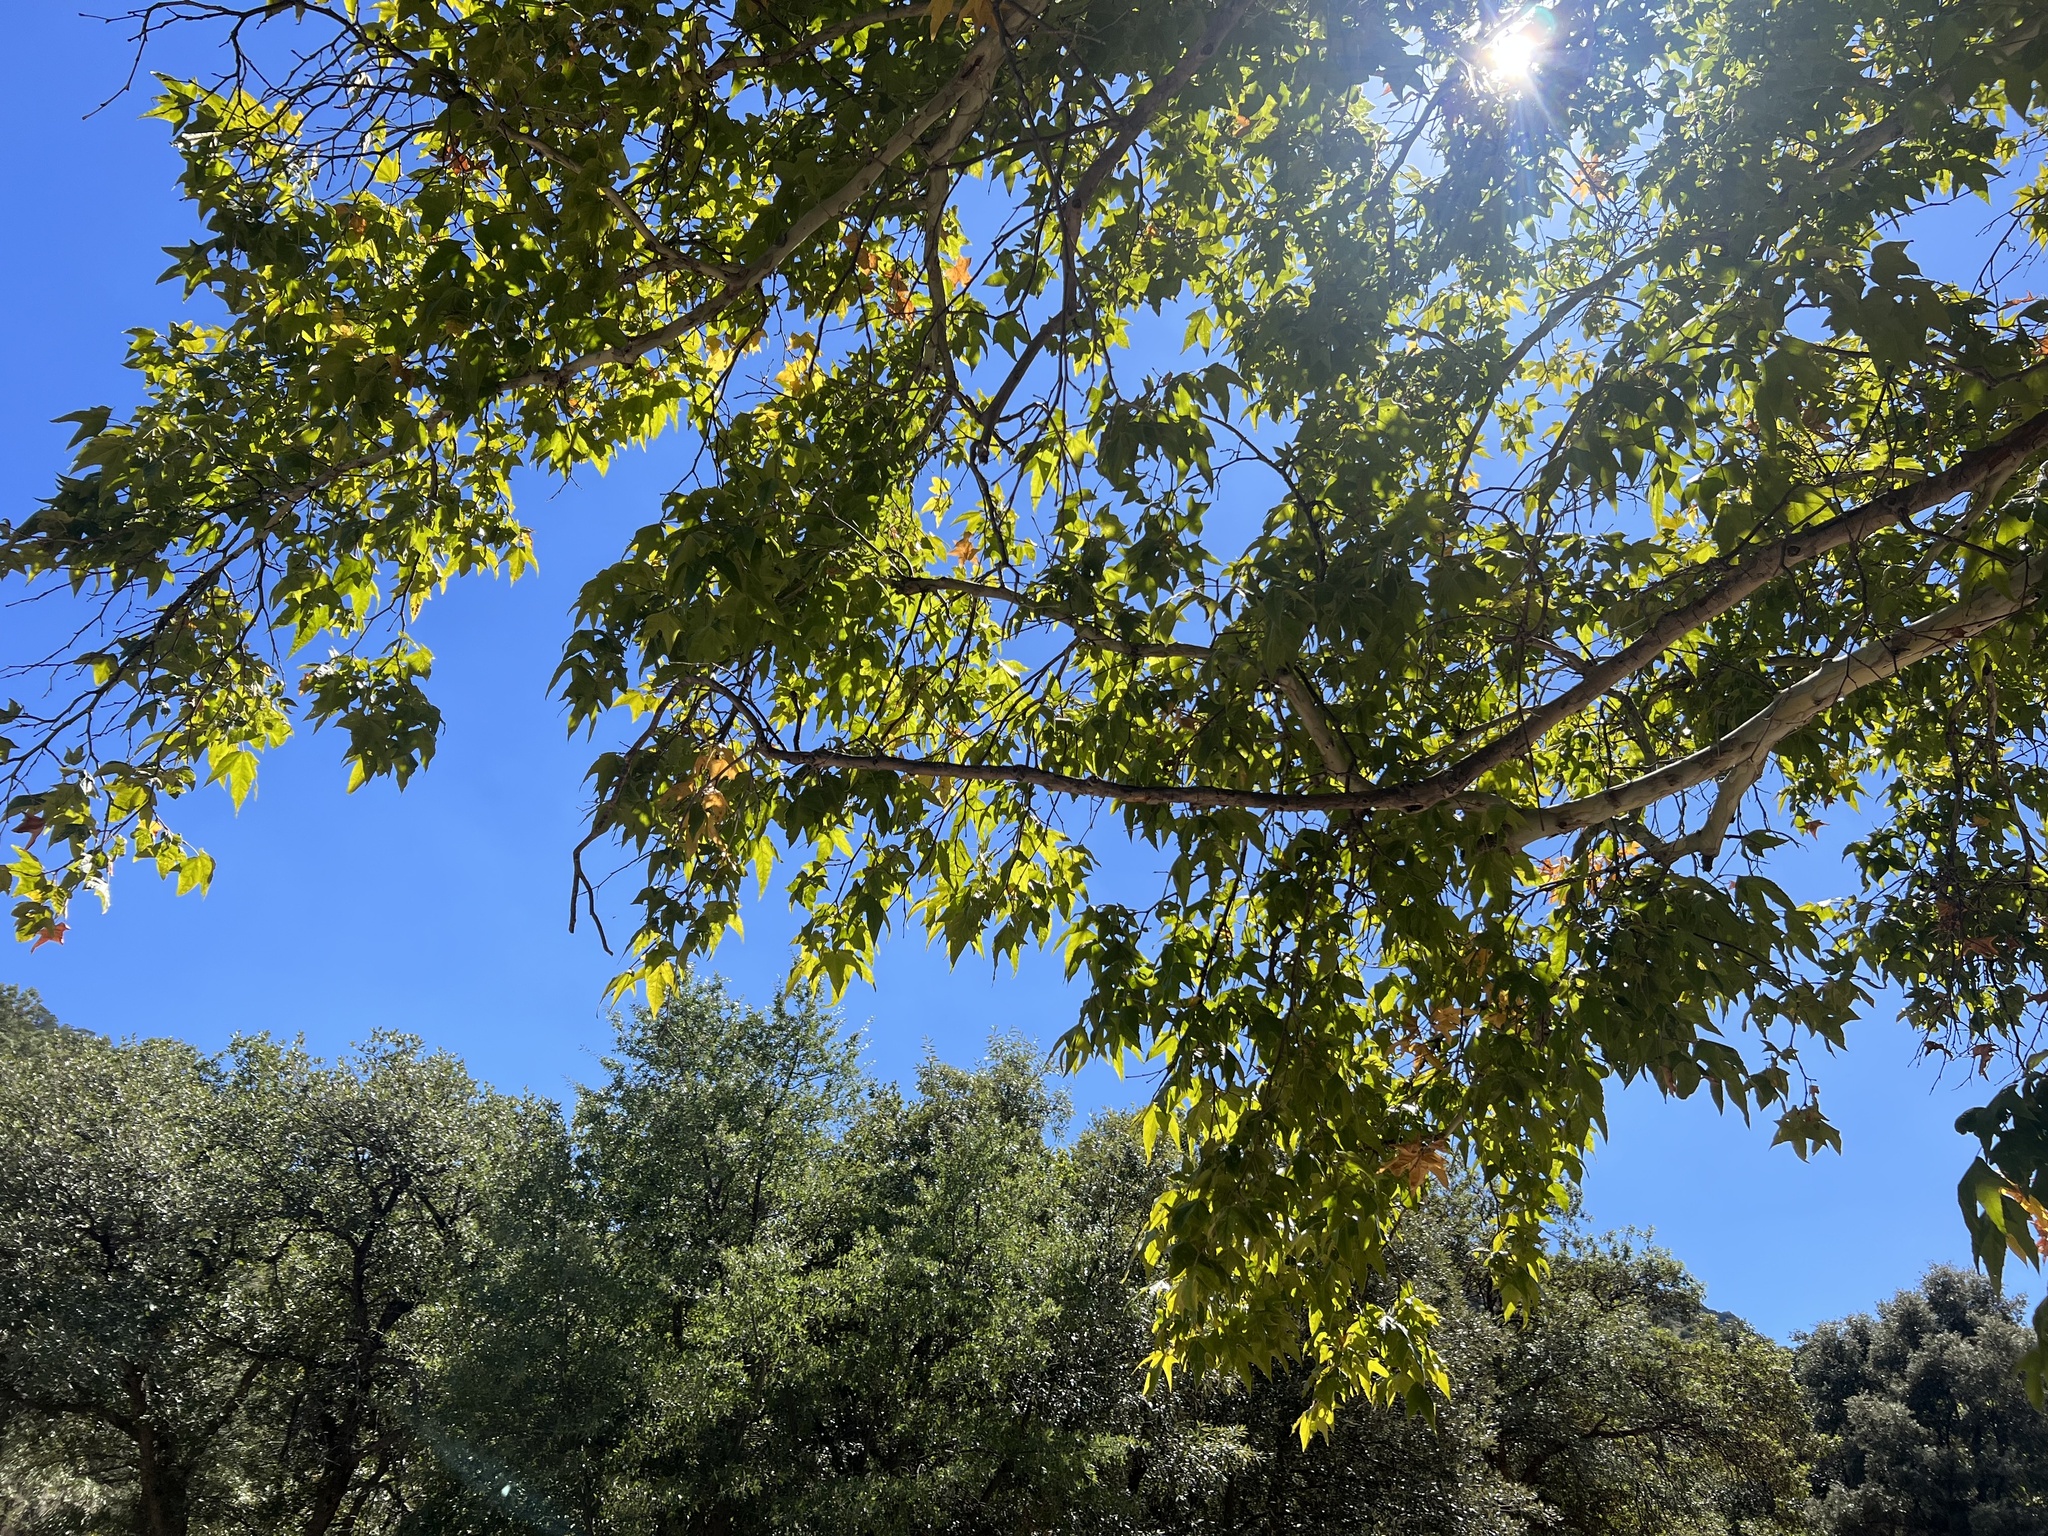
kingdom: Plantae
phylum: Tracheophyta
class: Magnoliopsida
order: Proteales
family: Platanaceae
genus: Platanus
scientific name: Platanus wrightii
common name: Arizona sycamore
